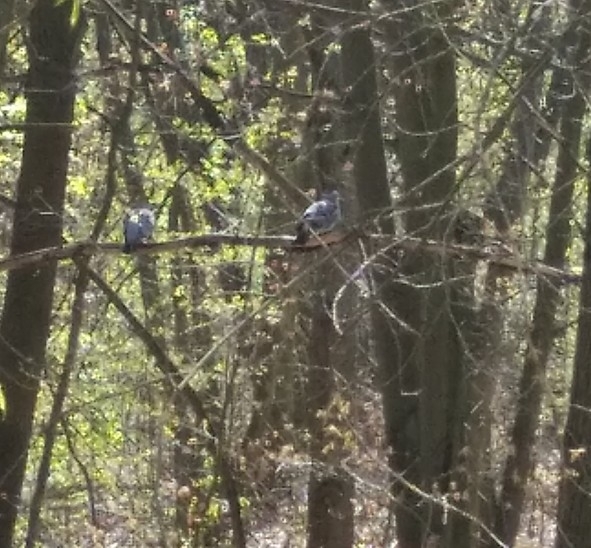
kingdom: Animalia
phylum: Chordata
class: Aves
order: Columbiformes
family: Columbidae
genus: Columba
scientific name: Columba palumbus
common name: Common wood pigeon
